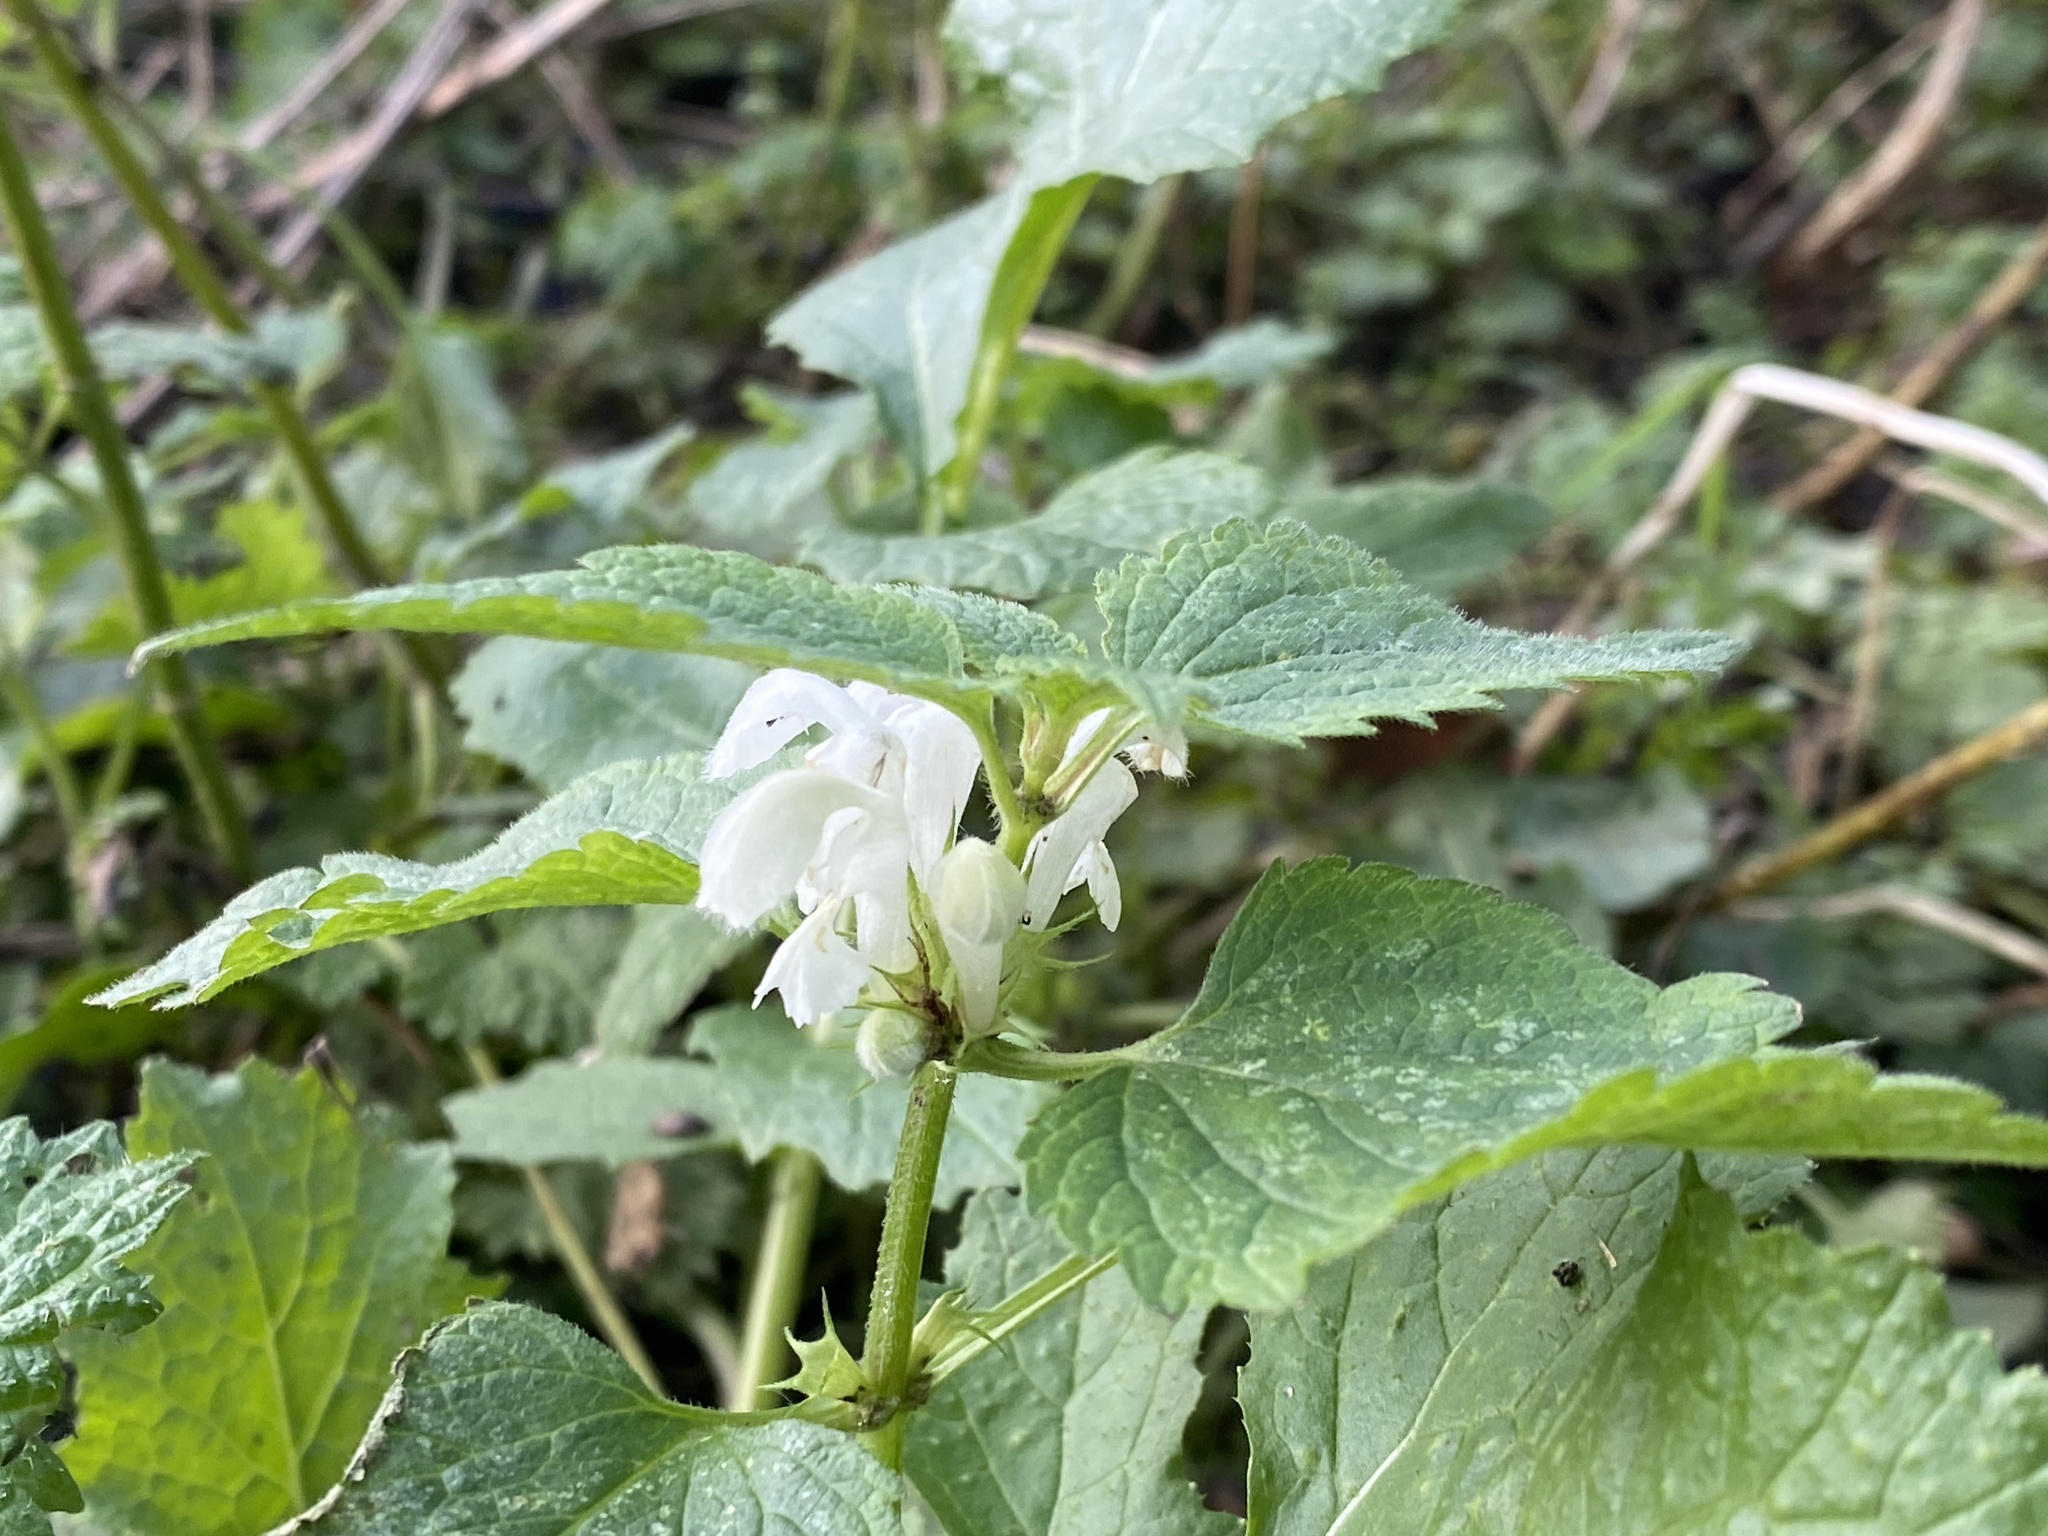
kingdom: Plantae
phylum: Tracheophyta
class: Magnoliopsida
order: Lamiales
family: Lamiaceae
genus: Lamium
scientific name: Lamium album
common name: White dead-nettle
